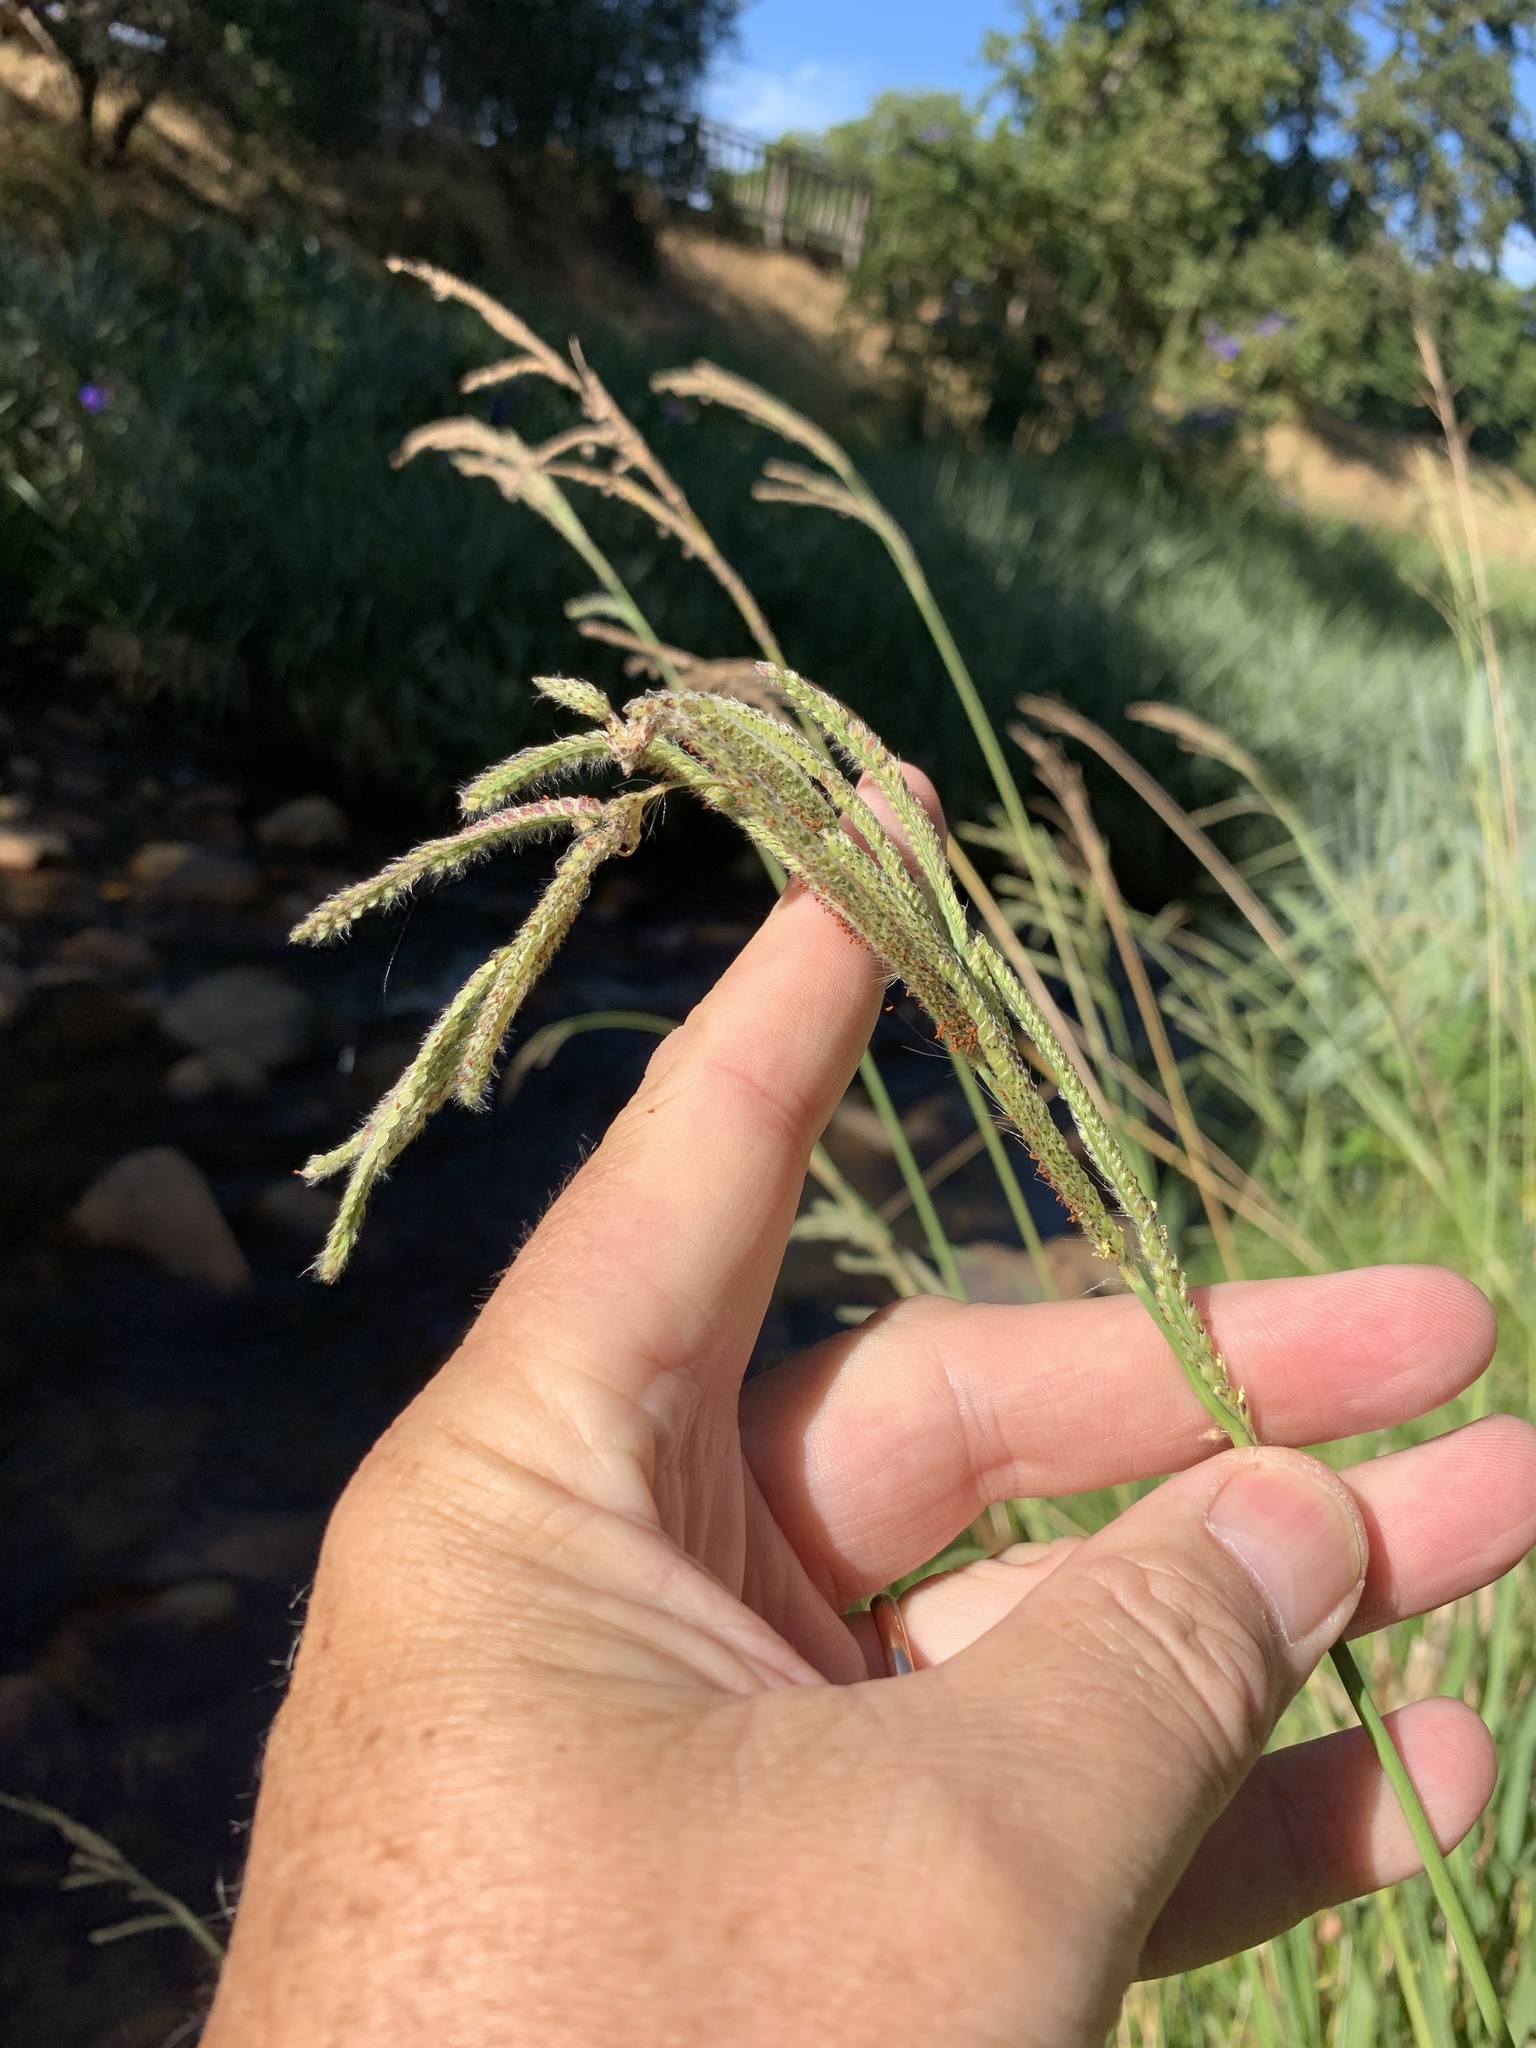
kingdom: Plantae
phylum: Tracheophyta
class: Liliopsida
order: Poales
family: Poaceae
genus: Paspalum
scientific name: Paspalum urvillei
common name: Vasey's grass
